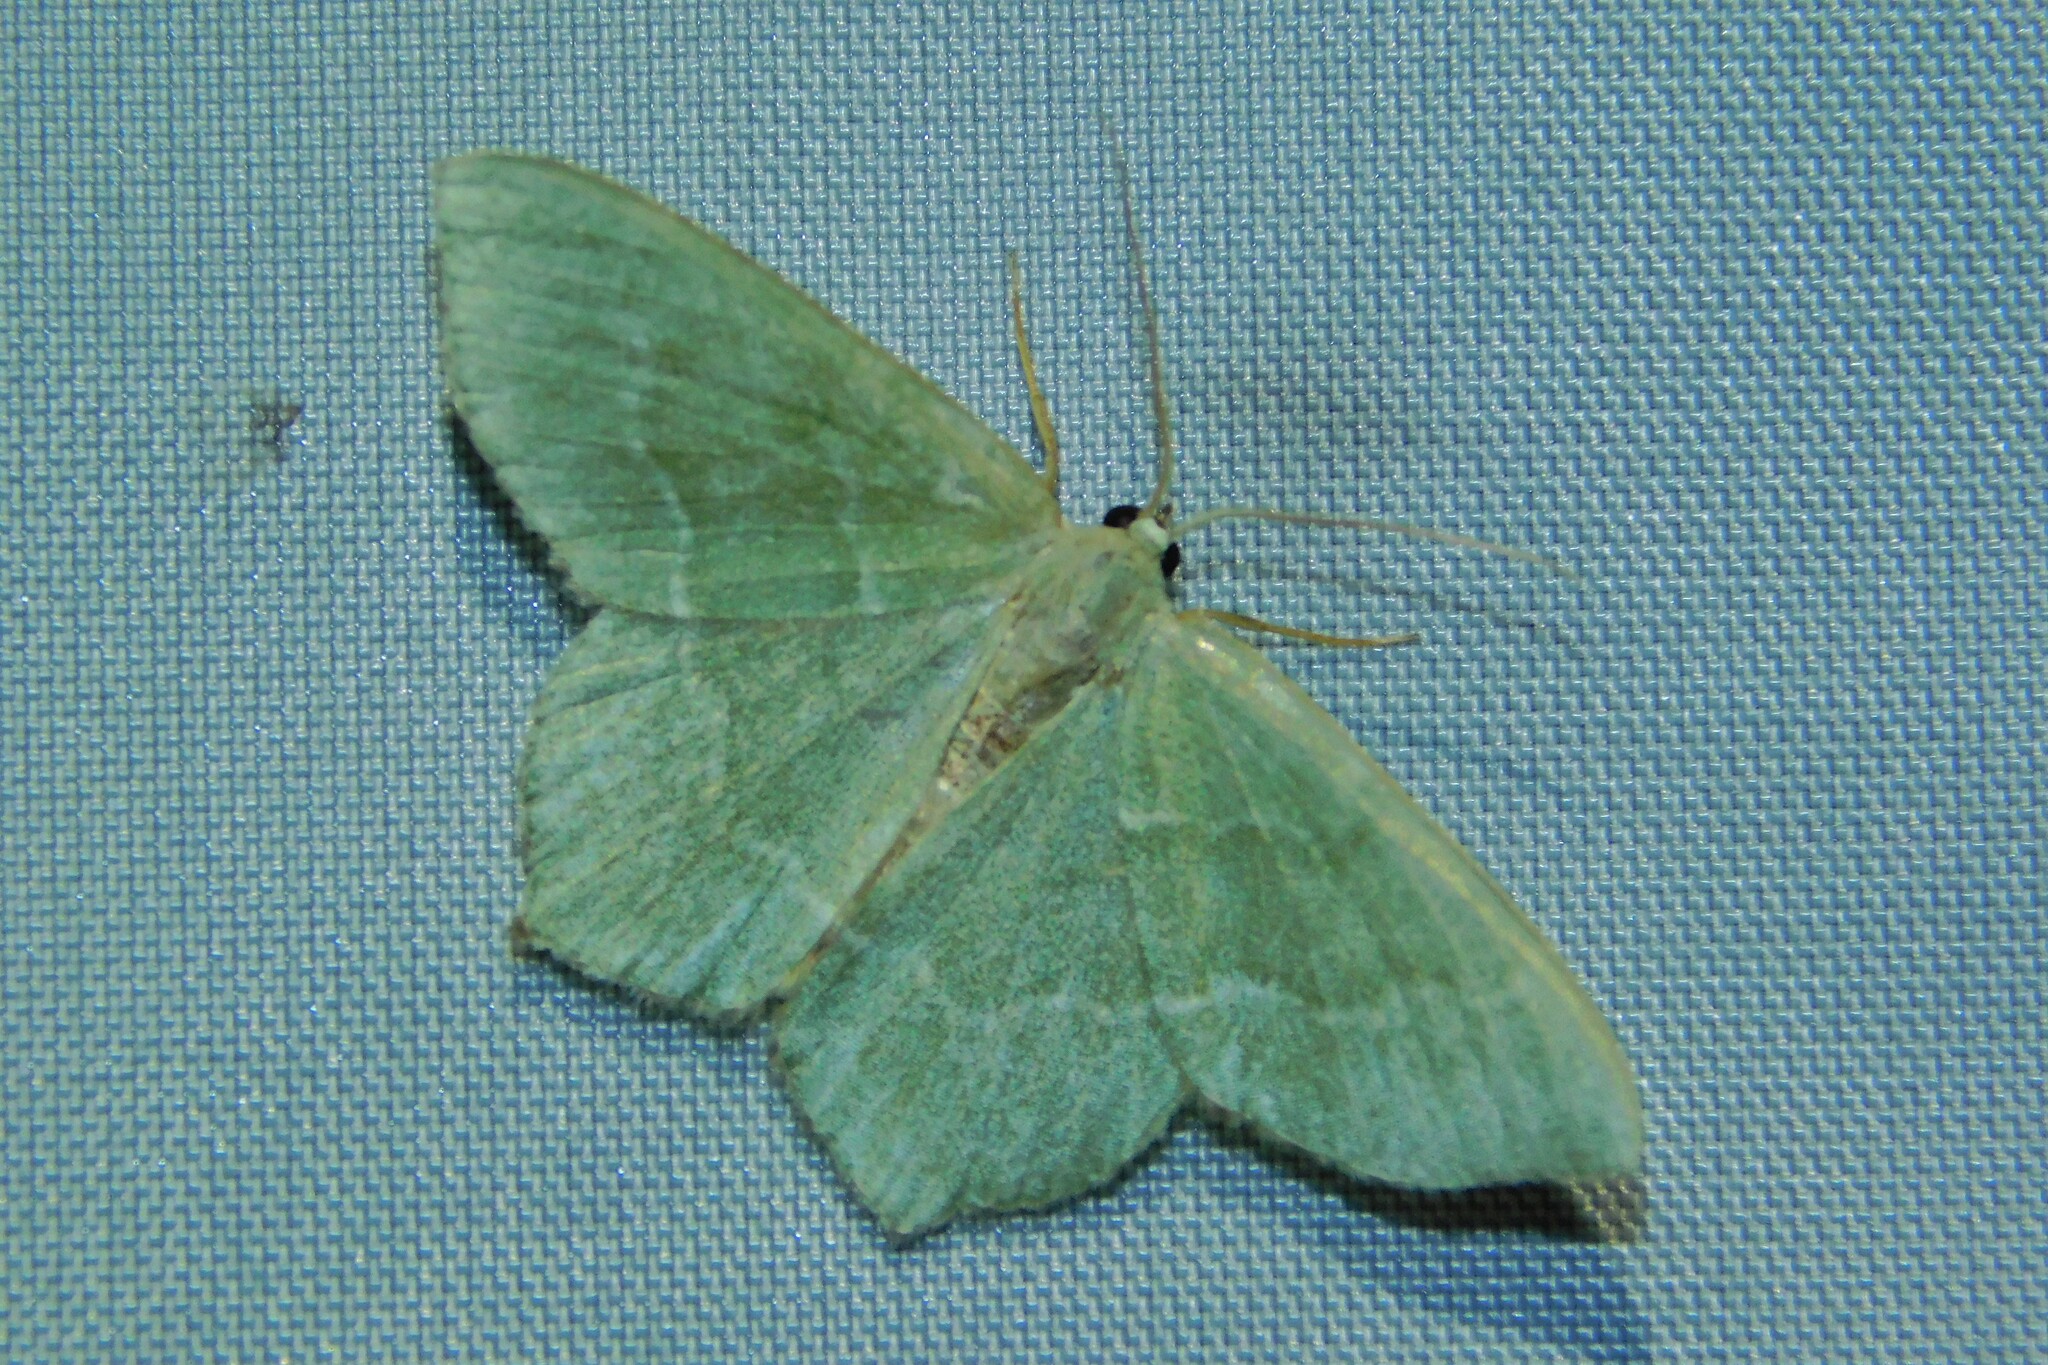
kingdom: Animalia
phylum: Arthropoda
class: Insecta
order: Lepidoptera
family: Geometridae
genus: Hemithea
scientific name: Hemithea aestivaria
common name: Common emerald
